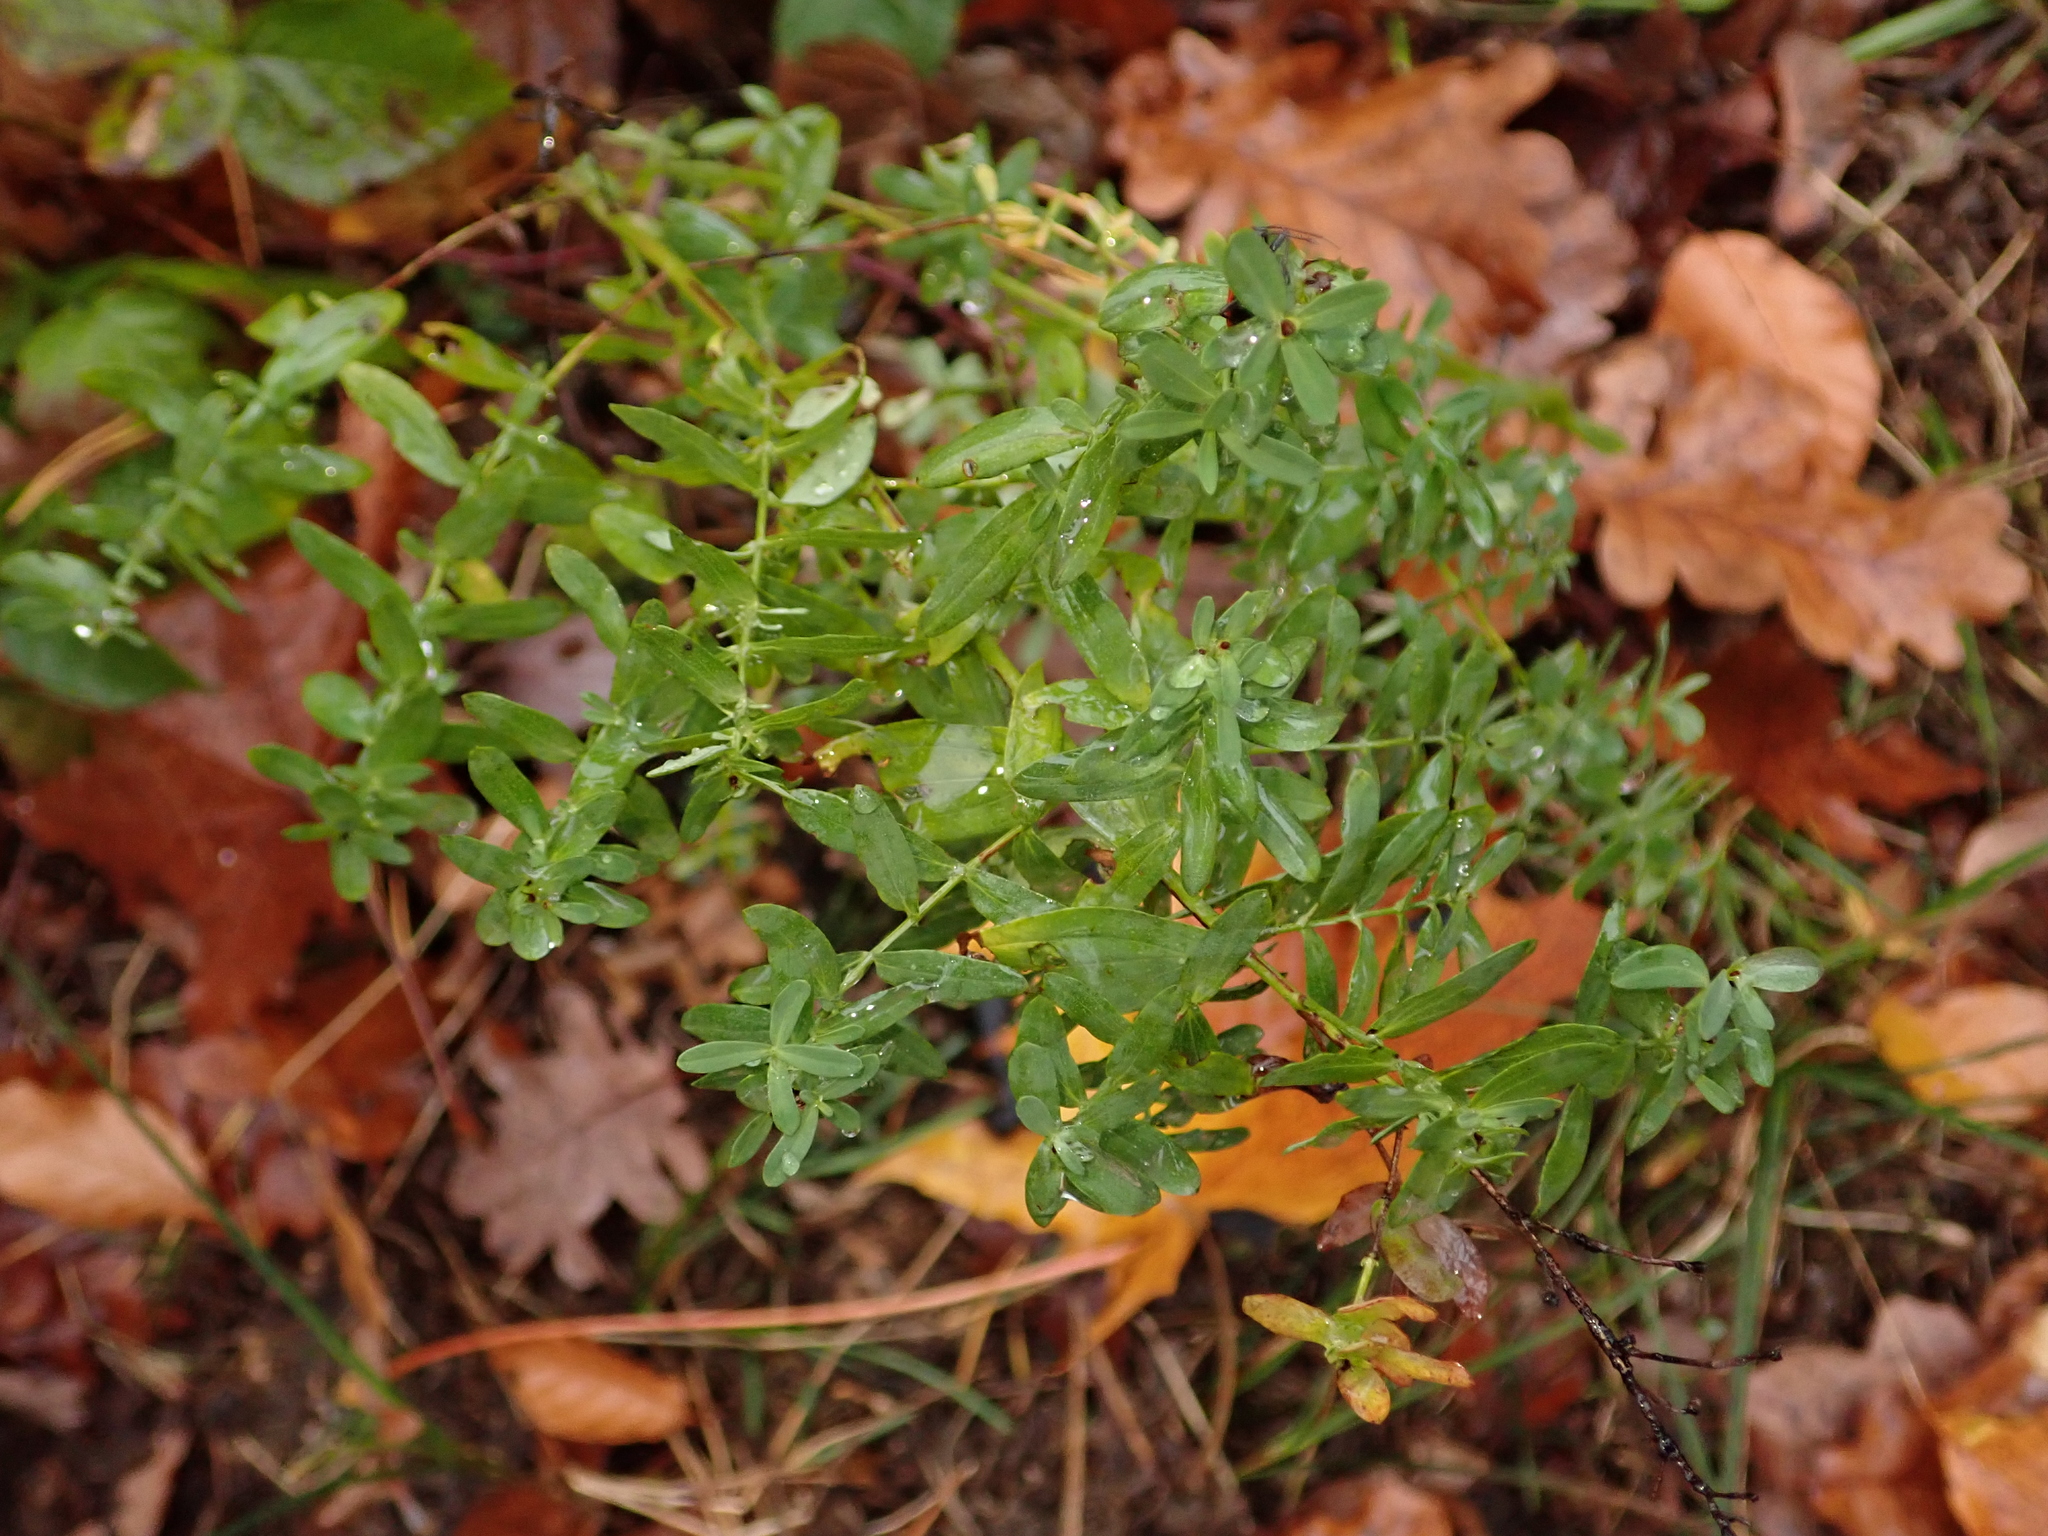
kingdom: Plantae
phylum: Tracheophyta
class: Magnoliopsida
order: Malpighiales
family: Hypericaceae
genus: Hypericum
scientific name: Hypericum perforatum
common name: Common st. johnswort
